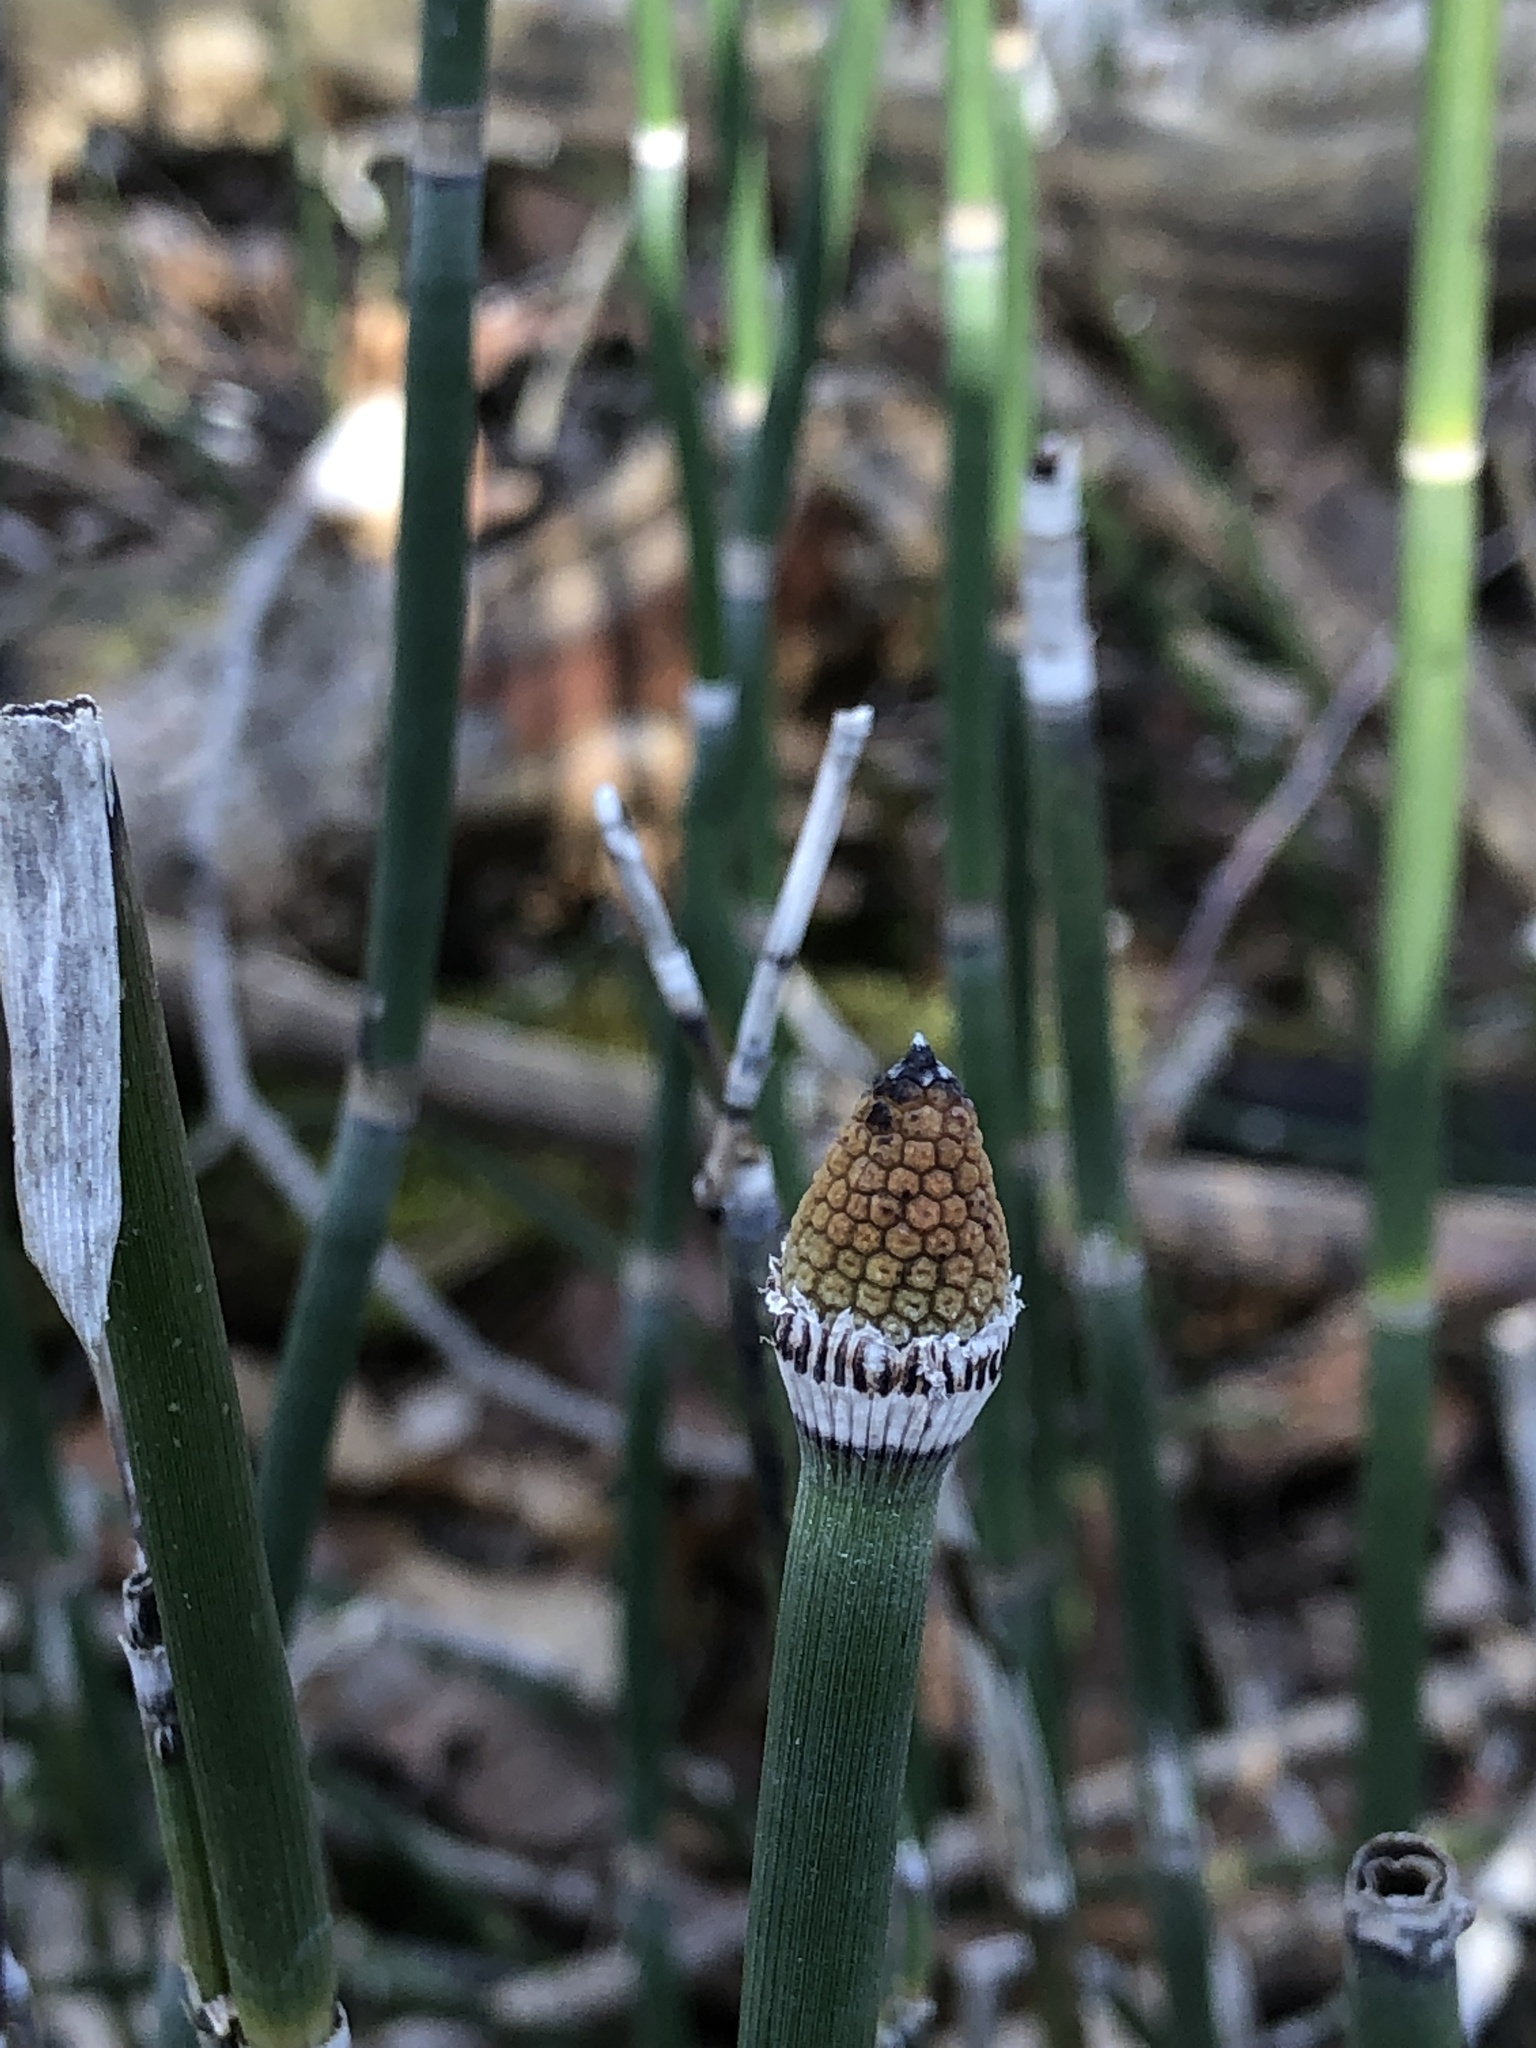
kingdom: Plantae
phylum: Tracheophyta
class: Polypodiopsida
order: Equisetales
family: Equisetaceae
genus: Equisetum
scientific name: Equisetum praealtum
